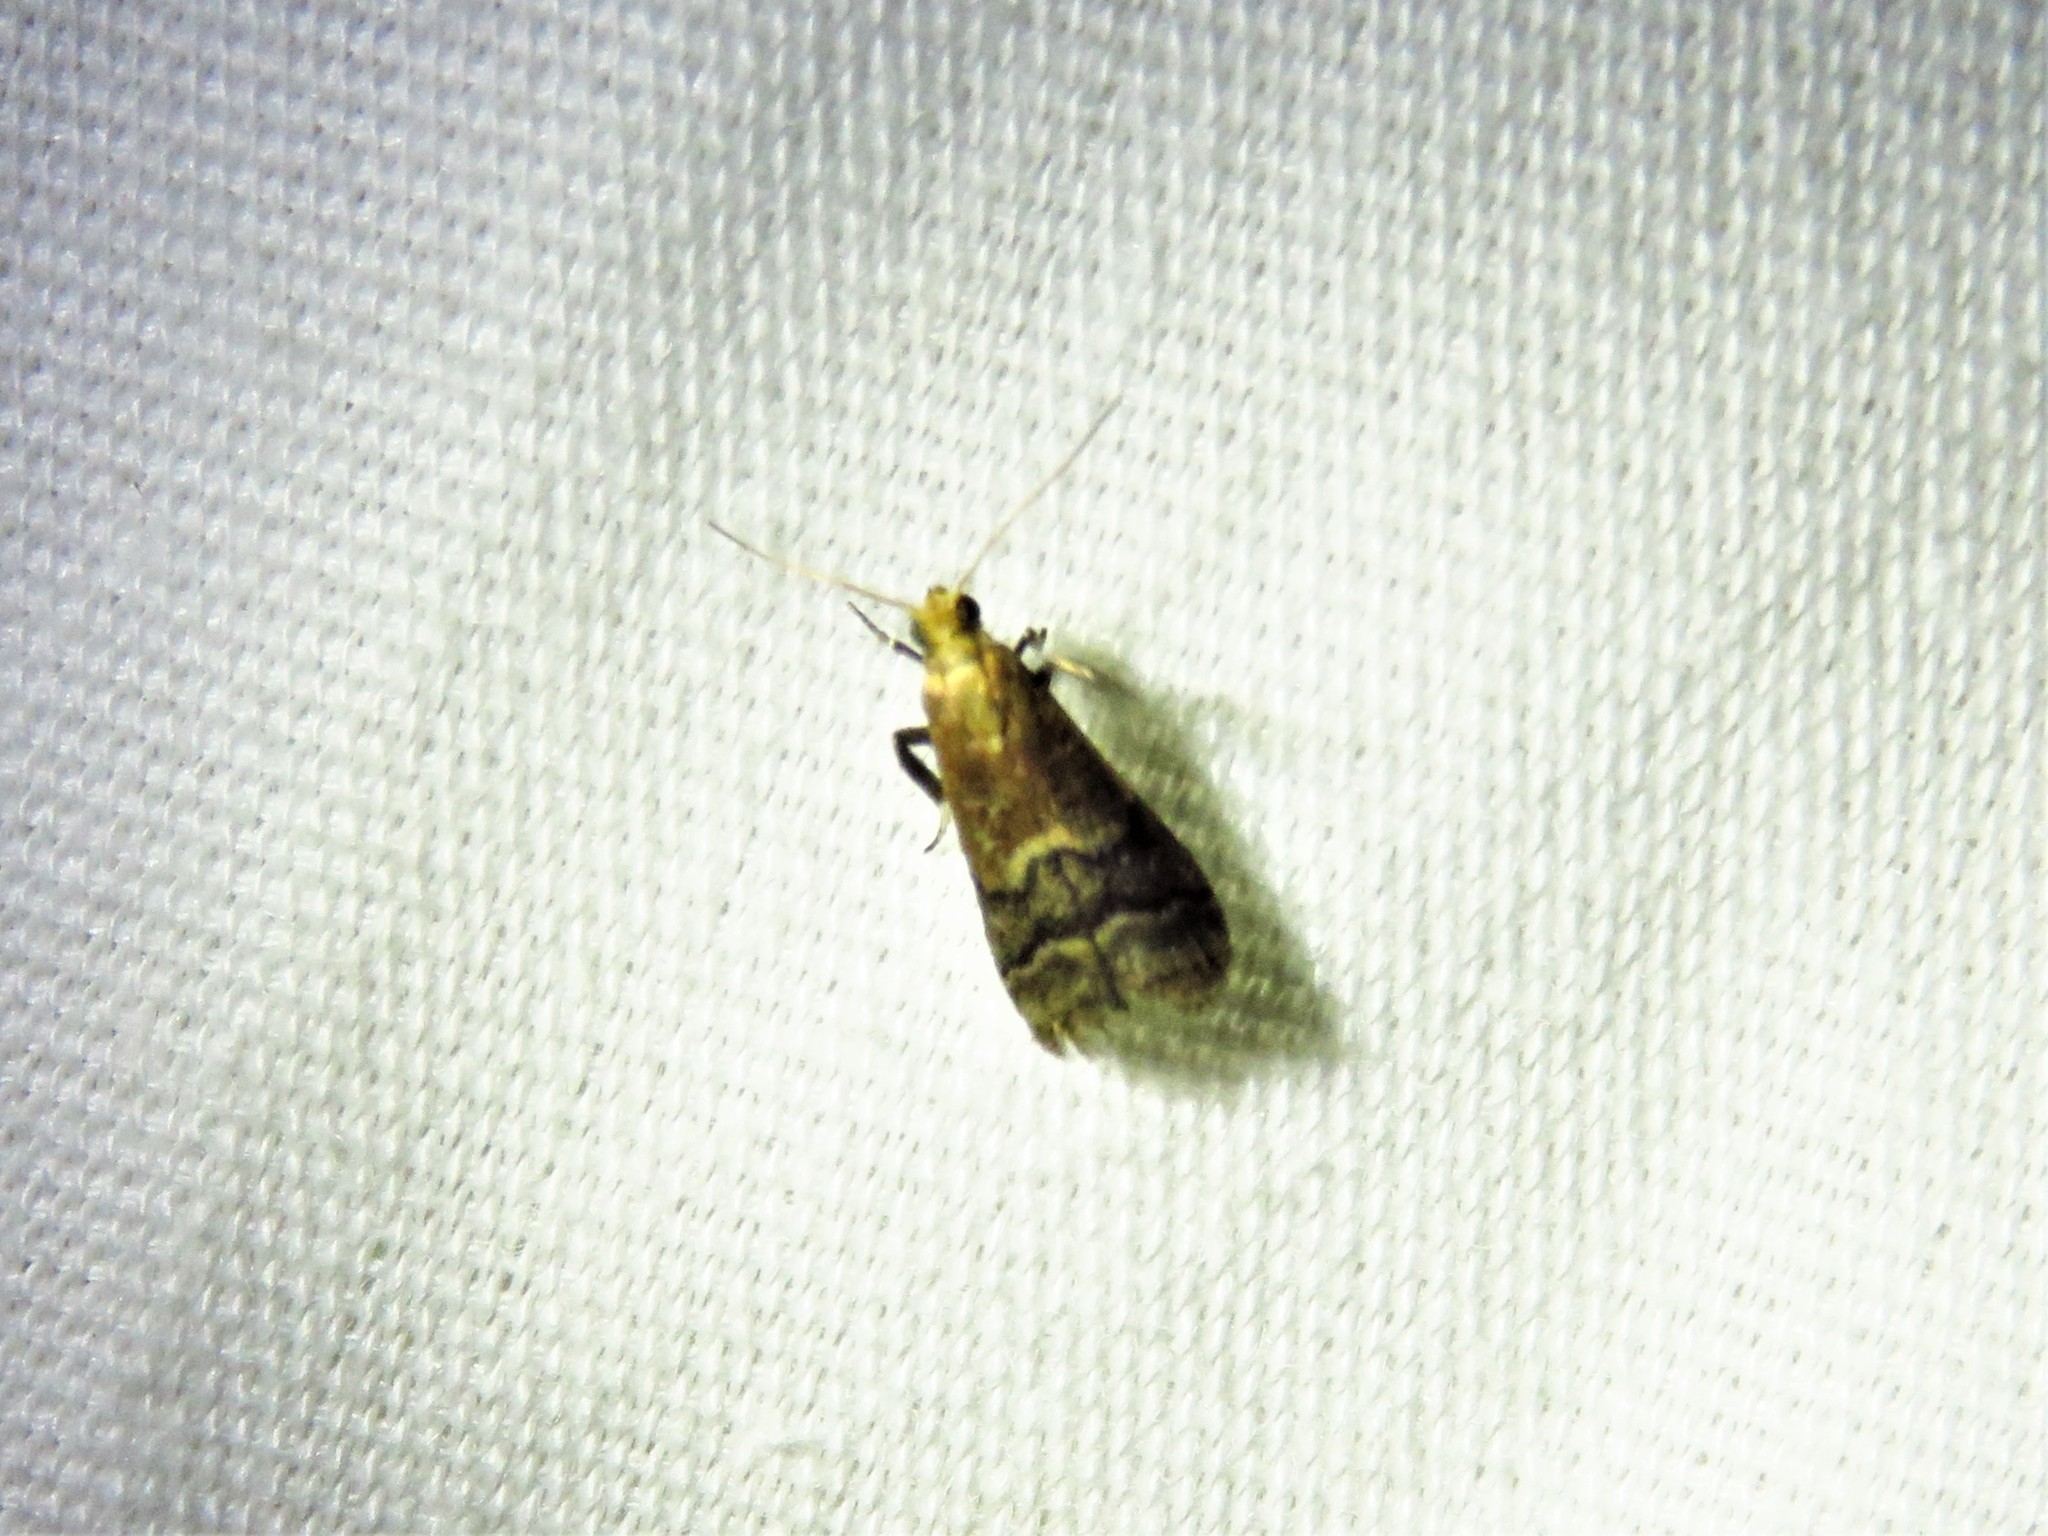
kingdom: Animalia
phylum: Arthropoda
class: Insecta
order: Lepidoptera
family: Pyralidae
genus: Eulogia
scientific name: Eulogia ochrifrontella
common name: Broad-banded eulogia moth
